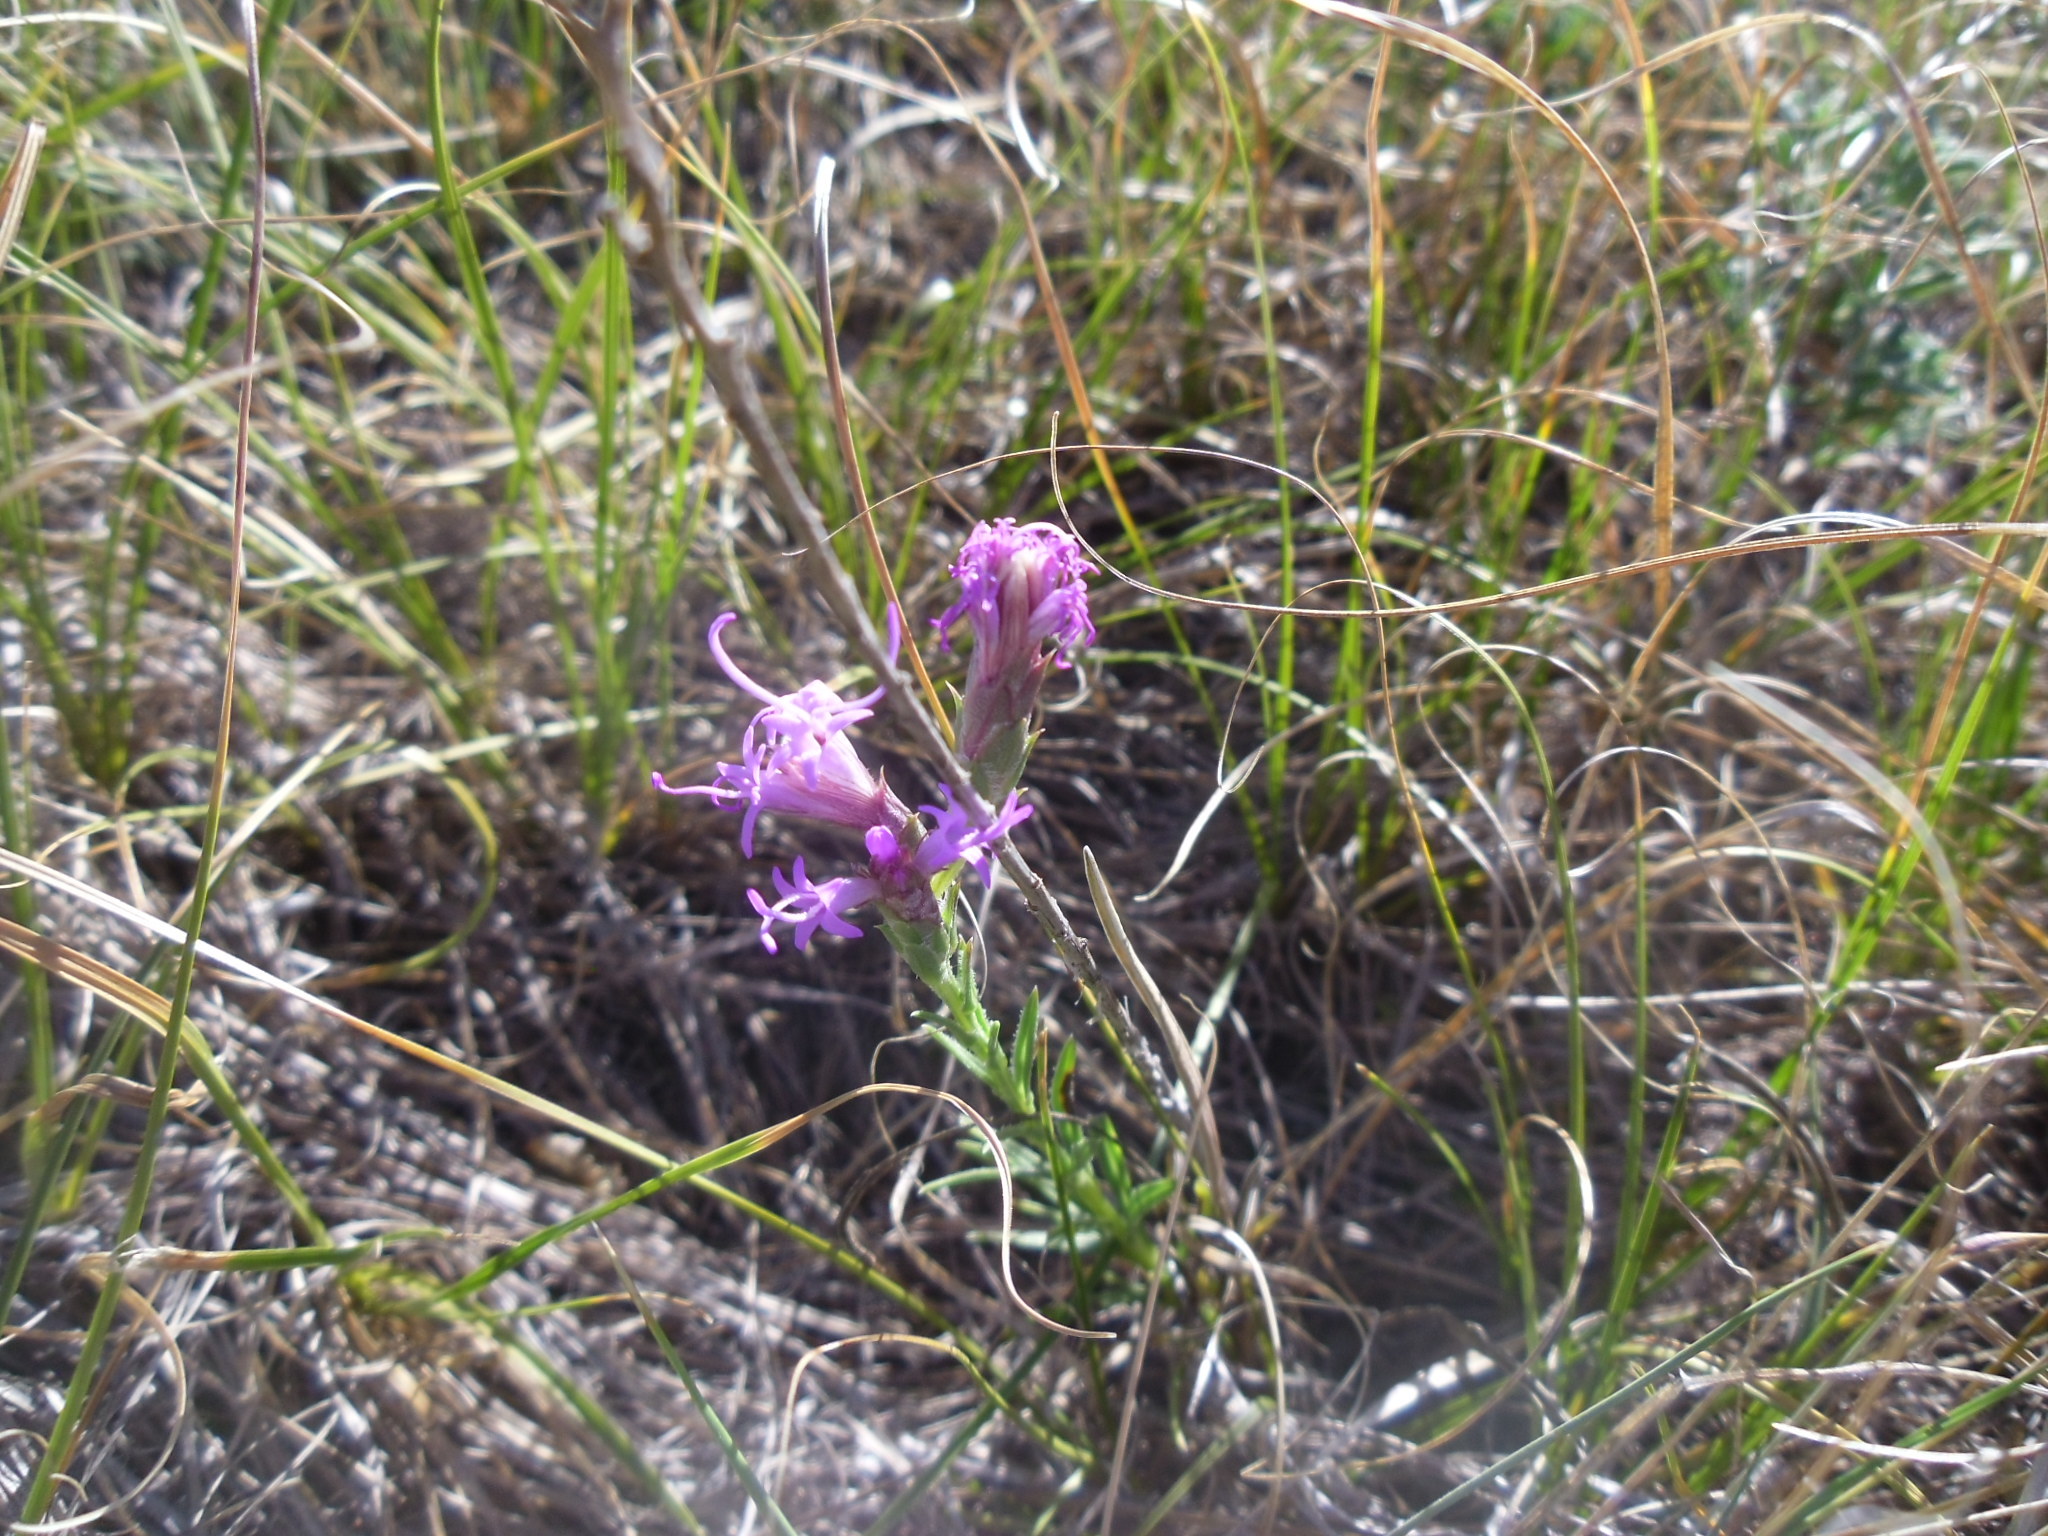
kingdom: Plantae
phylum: Tracheophyta
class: Magnoliopsida
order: Asterales
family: Asteraceae
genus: Liatris
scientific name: Liatris punctata
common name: Dotted gayfeather
